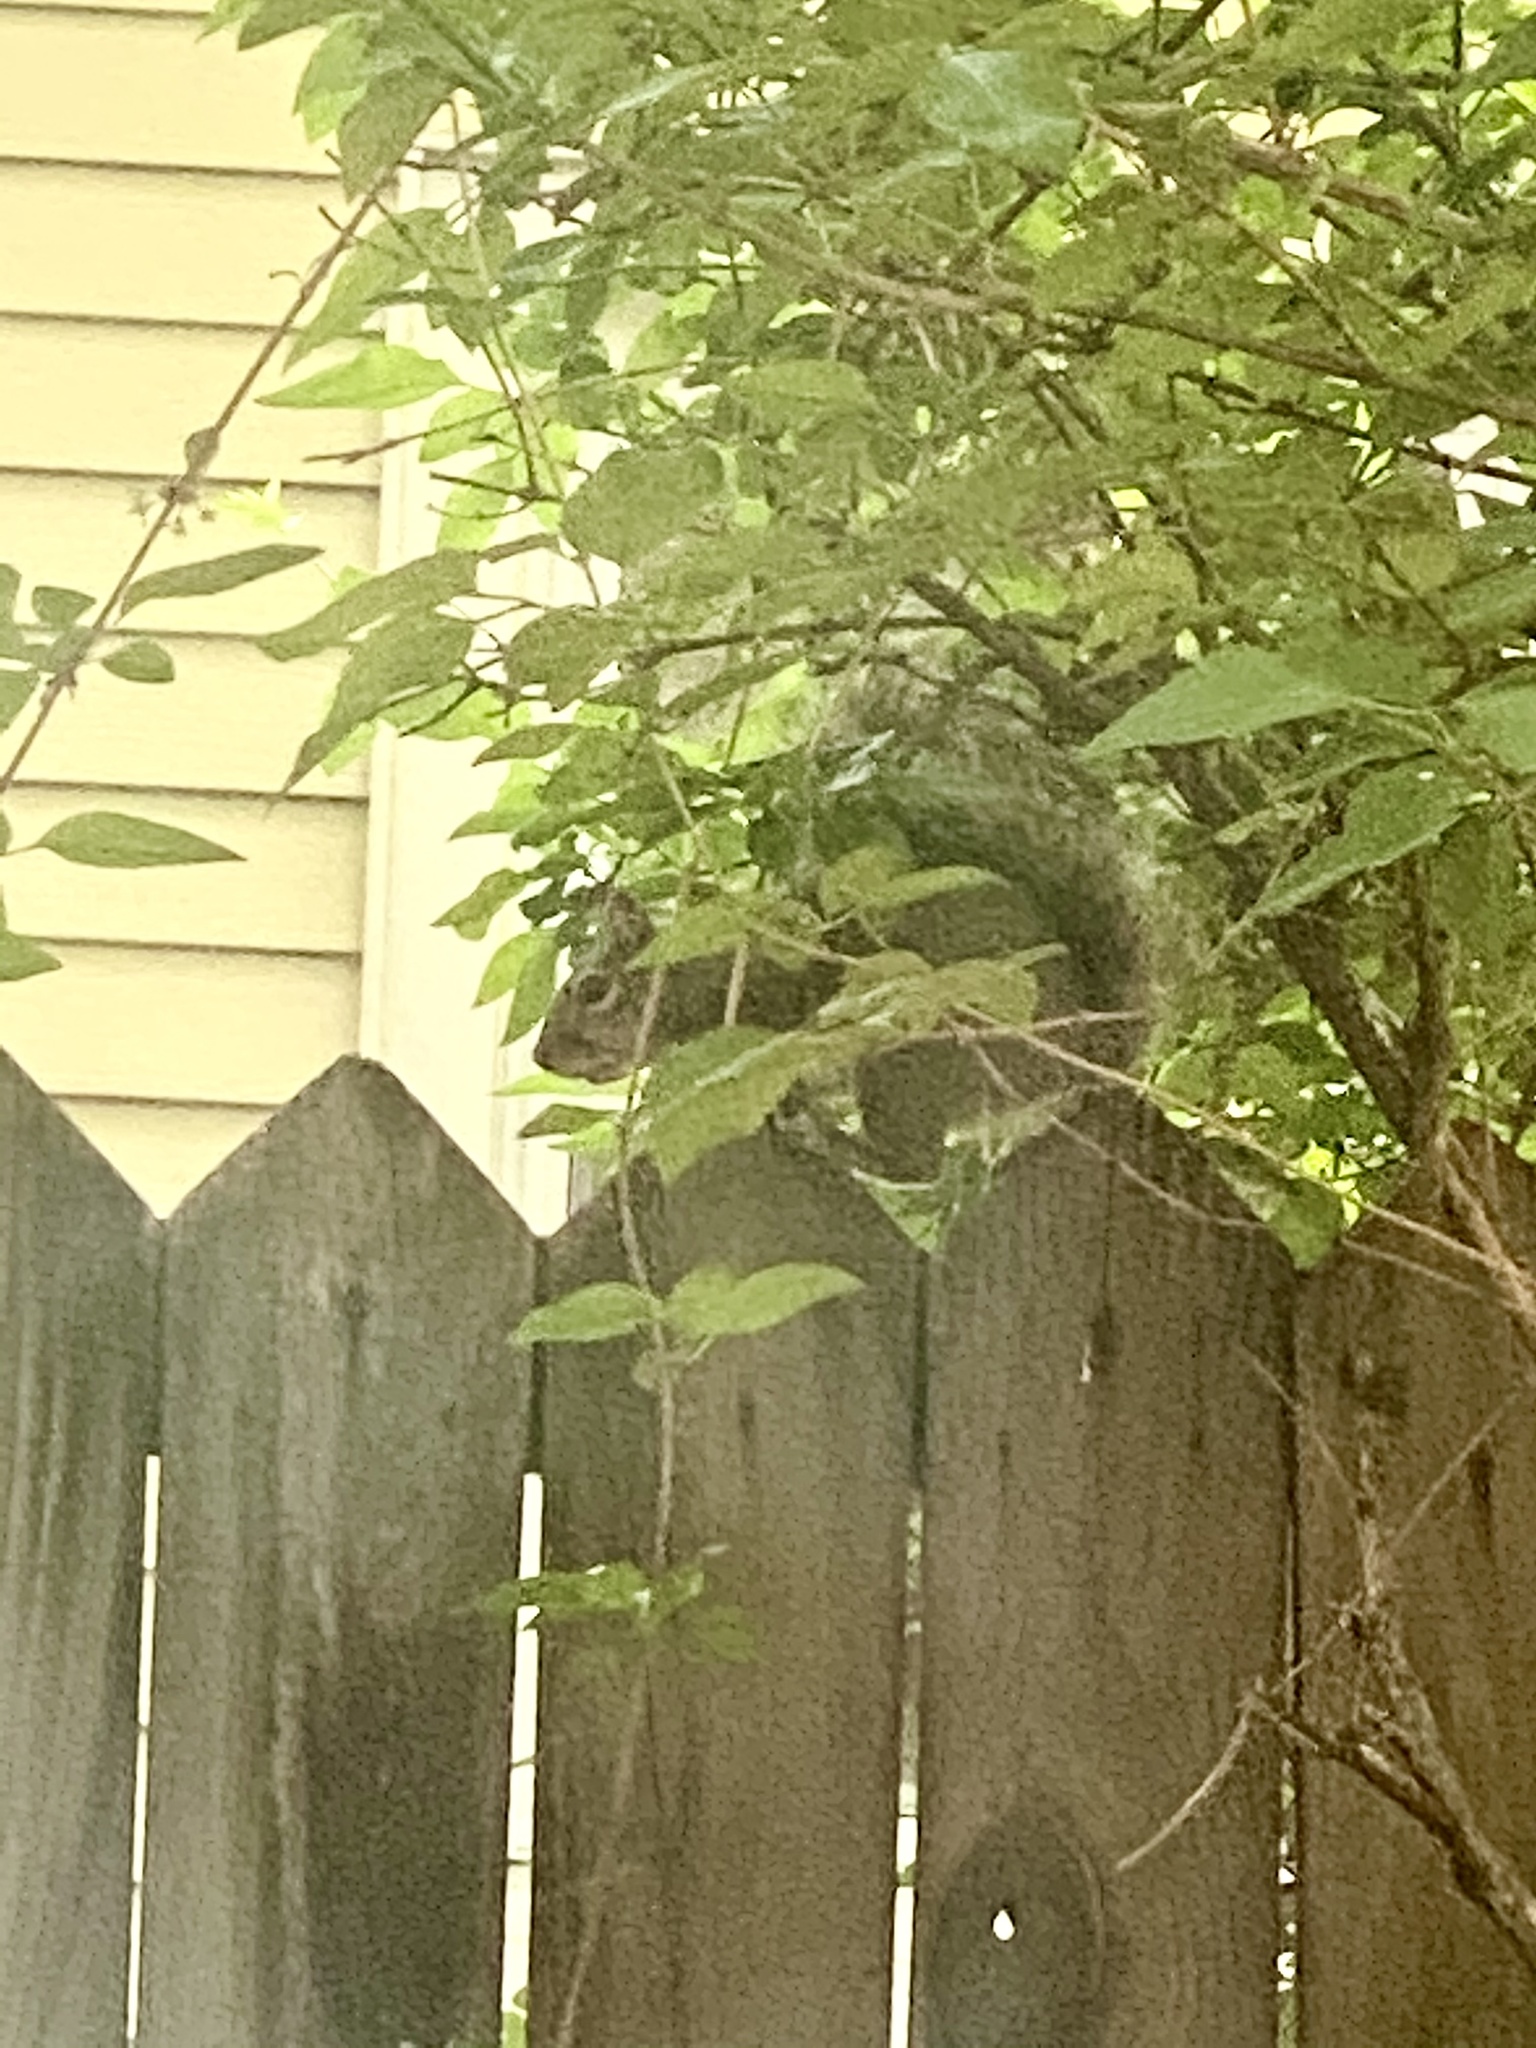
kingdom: Animalia
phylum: Chordata
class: Mammalia
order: Rodentia
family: Sciuridae
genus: Sciurus
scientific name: Sciurus carolinensis
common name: Eastern gray squirrel
